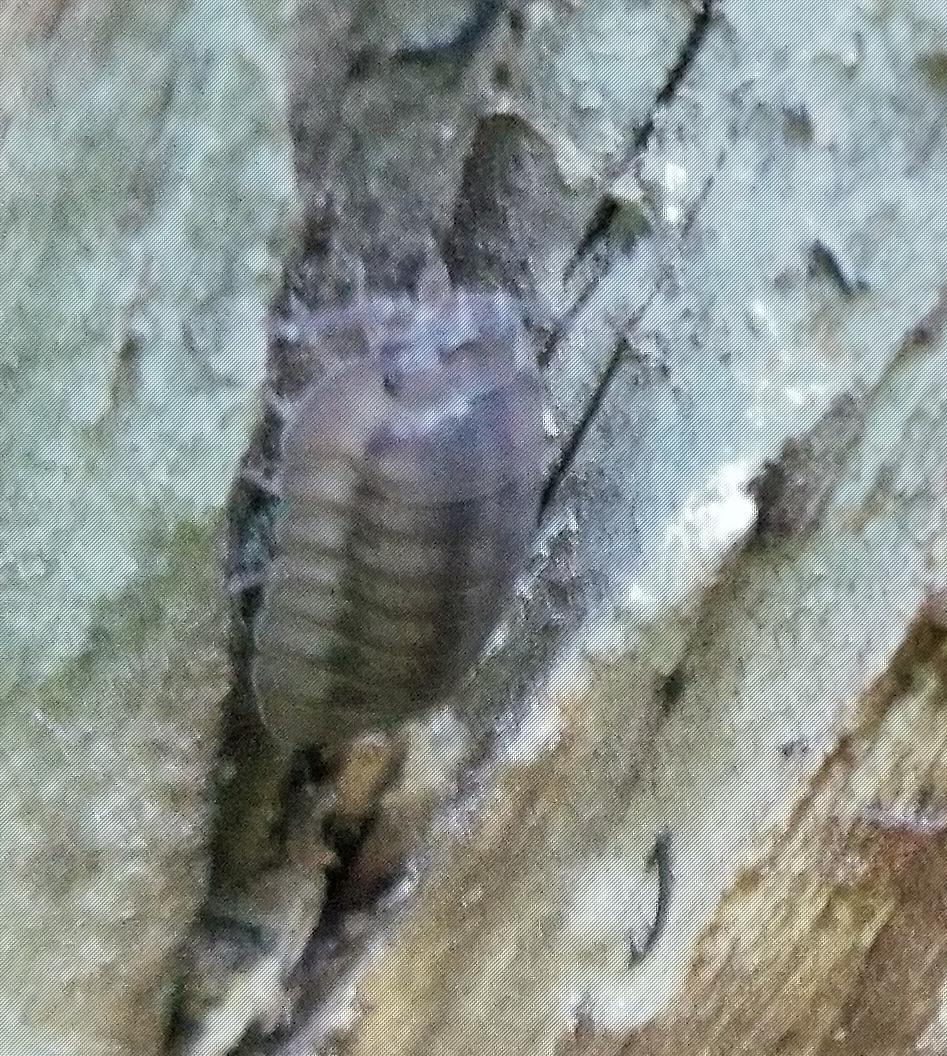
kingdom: Animalia
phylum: Arthropoda
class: Malacostraca
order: Isopoda
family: Armadillidiidae
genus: Armadillidium
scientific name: Armadillidium nasatum
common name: Isopod
